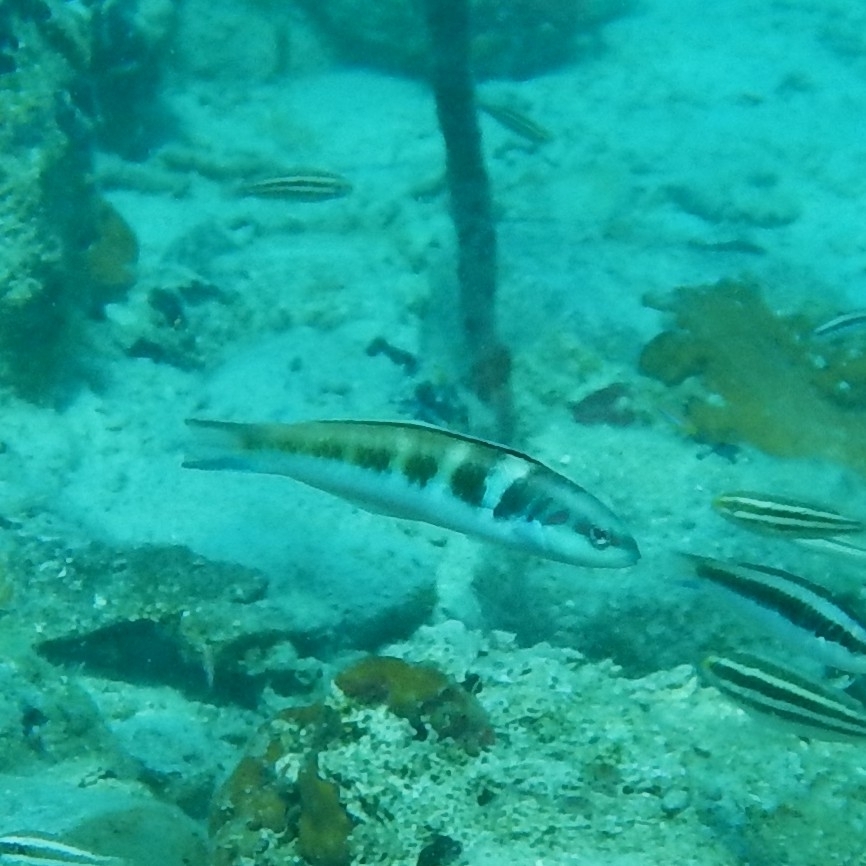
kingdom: Animalia
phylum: Chordata
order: Perciformes
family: Labridae
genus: Thalassoma
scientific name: Thalassoma bifasciatum
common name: Bluehead wrasse
